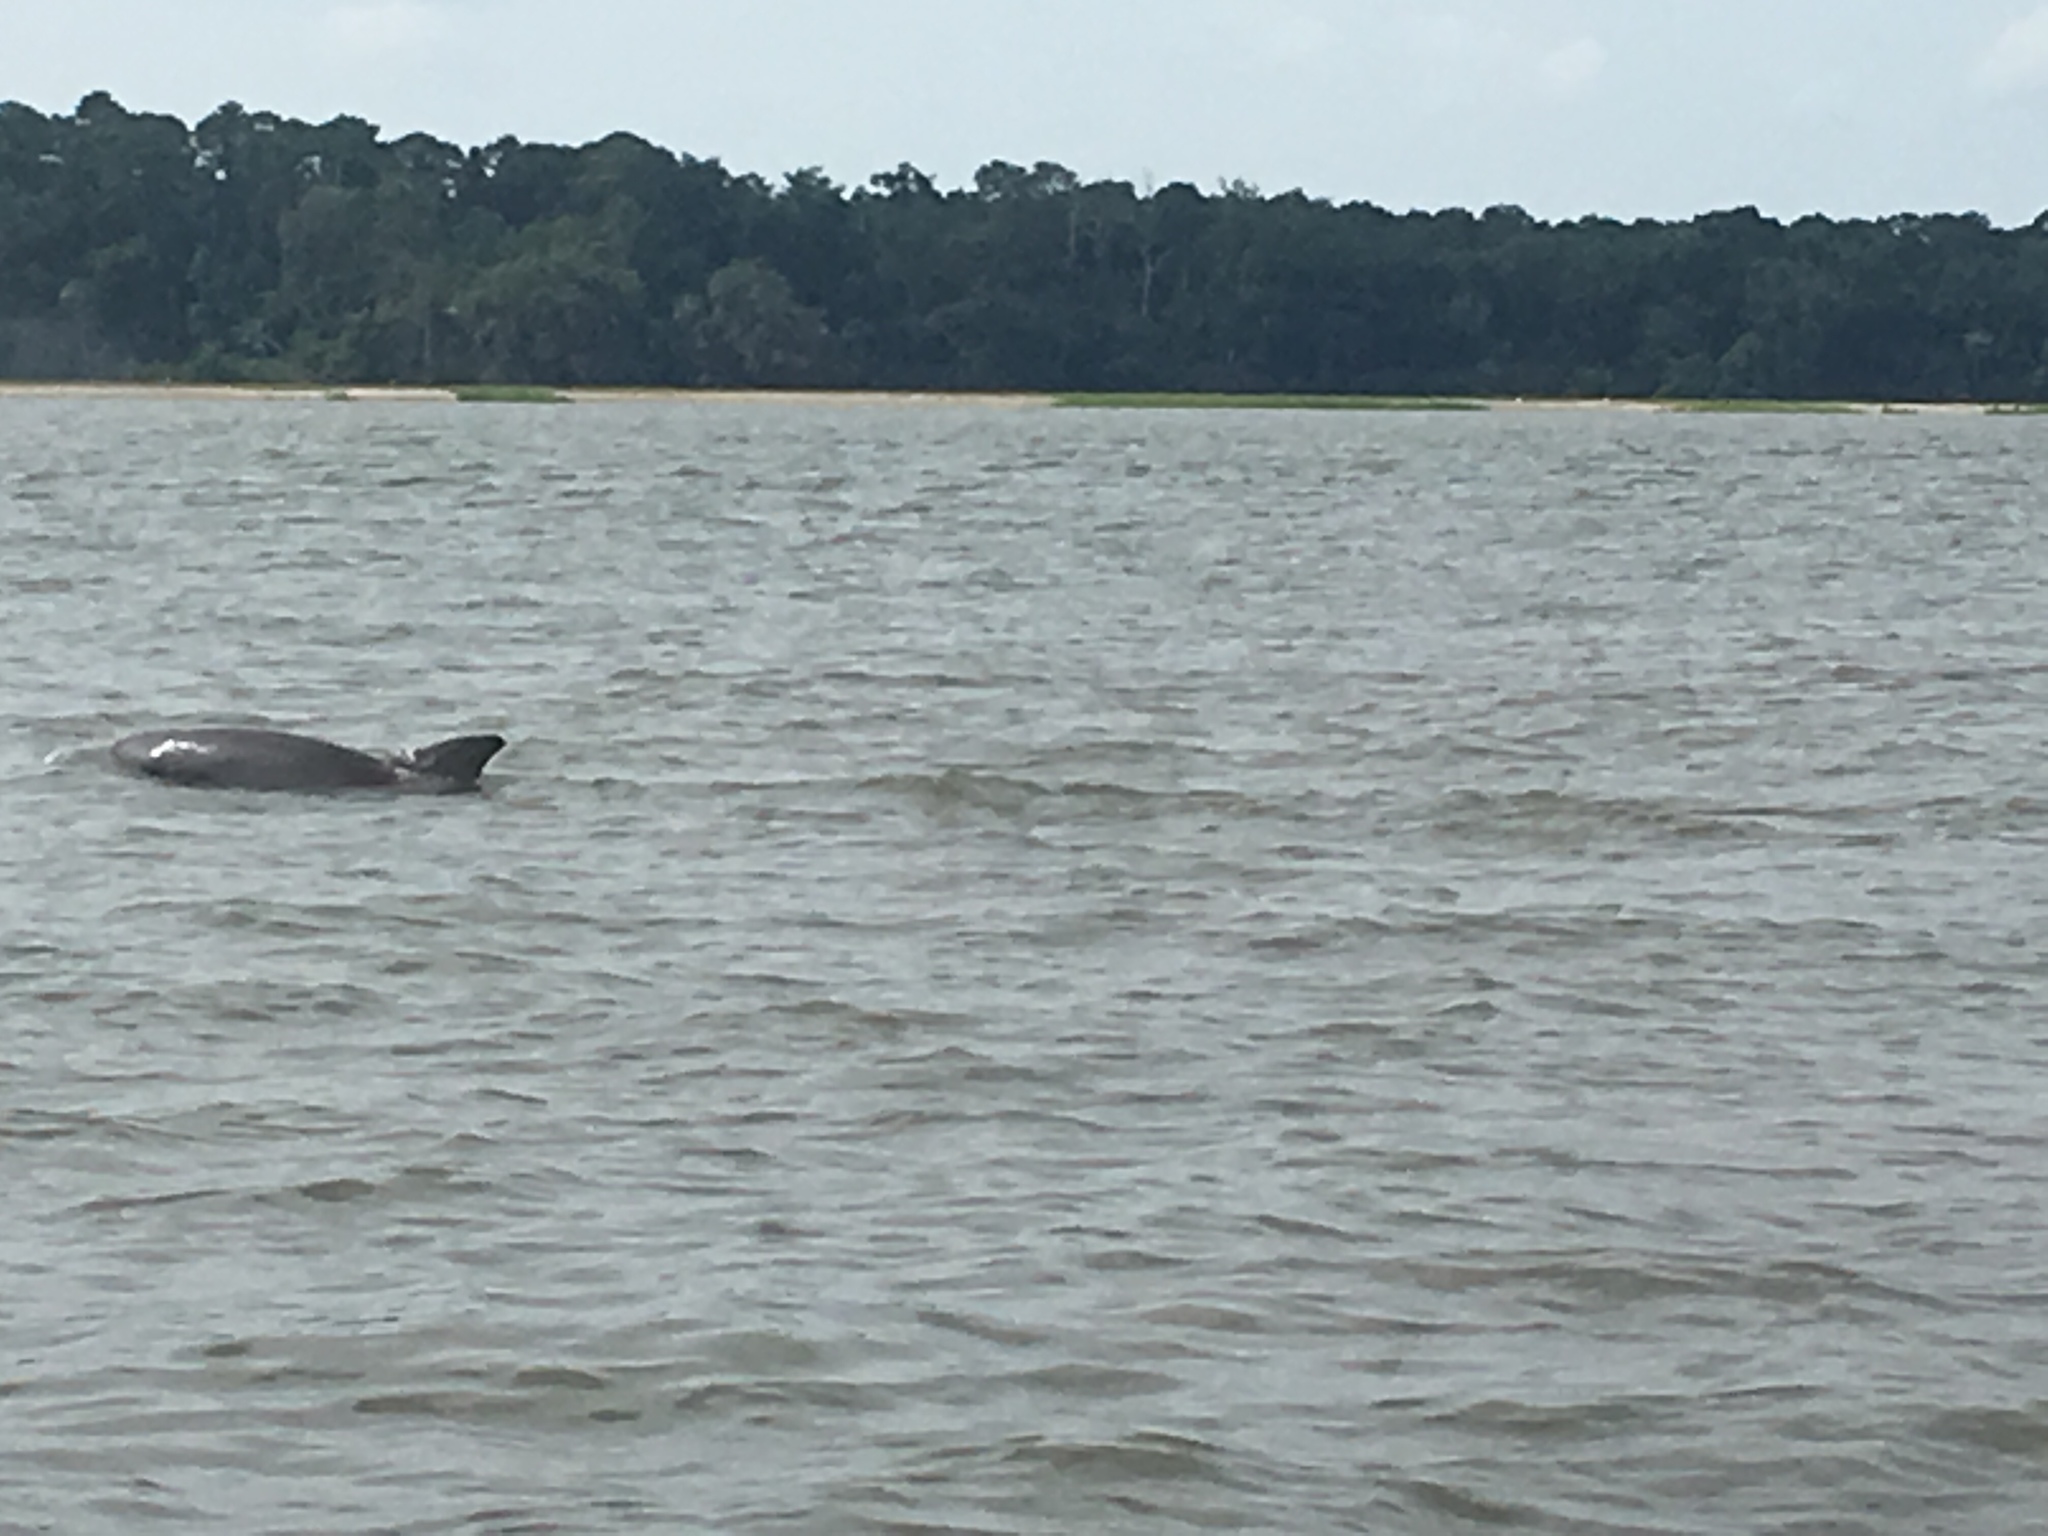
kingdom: Animalia
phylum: Chordata
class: Mammalia
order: Cetacea
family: Delphinidae
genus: Tursiops
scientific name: Tursiops truncatus
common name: Bottlenose dolphin
